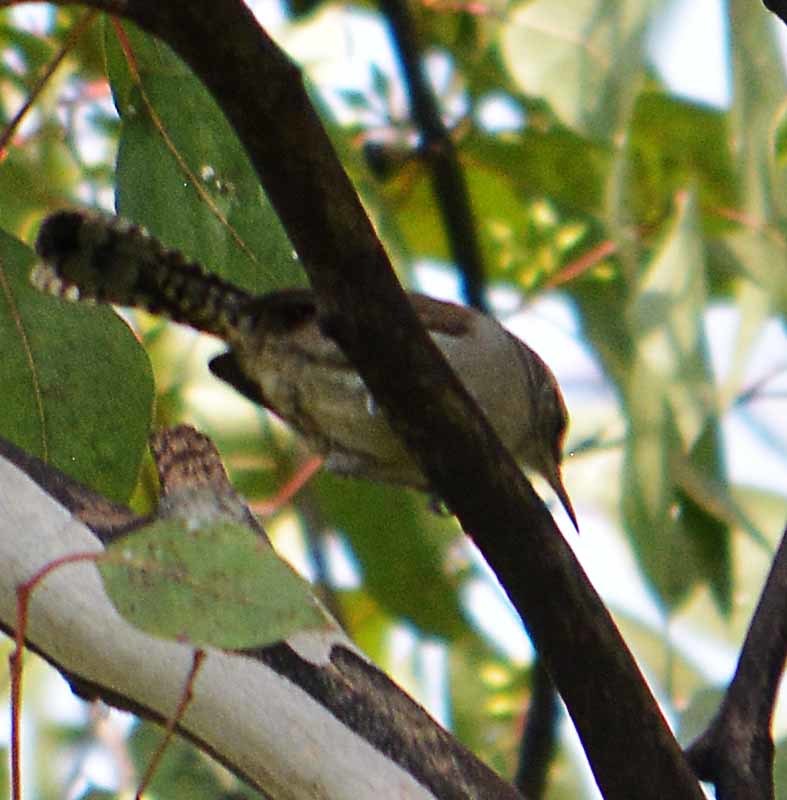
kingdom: Animalia
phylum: Chordata
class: Aves
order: Passeriformes
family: Troglodytidae
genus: Thryomanes
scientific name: Thryomanes bewickii
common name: Bewick's wren
